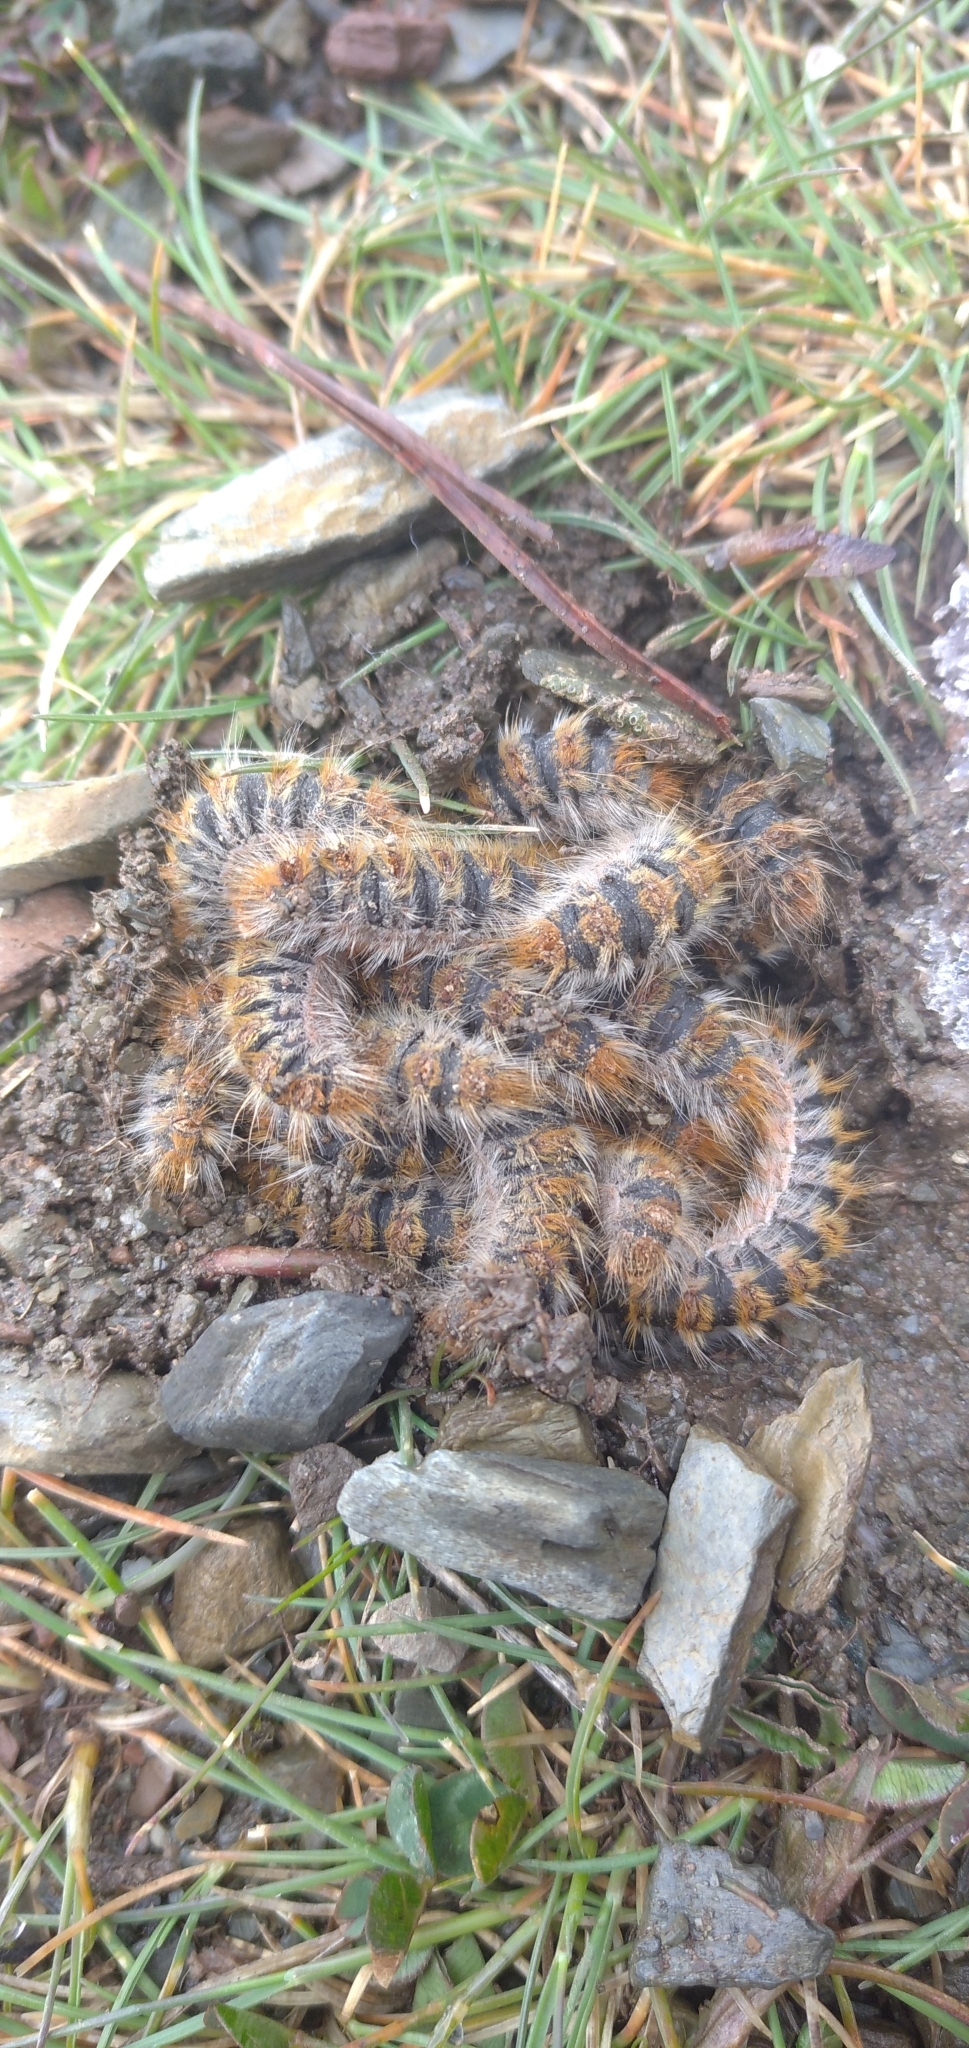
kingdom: Animalia
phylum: Arthropoda
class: Insecta
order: Lepidoptera
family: Notodontidae
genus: Thaumetopoea
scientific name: Thaumetopoea pityocampa
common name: Pine processionary
